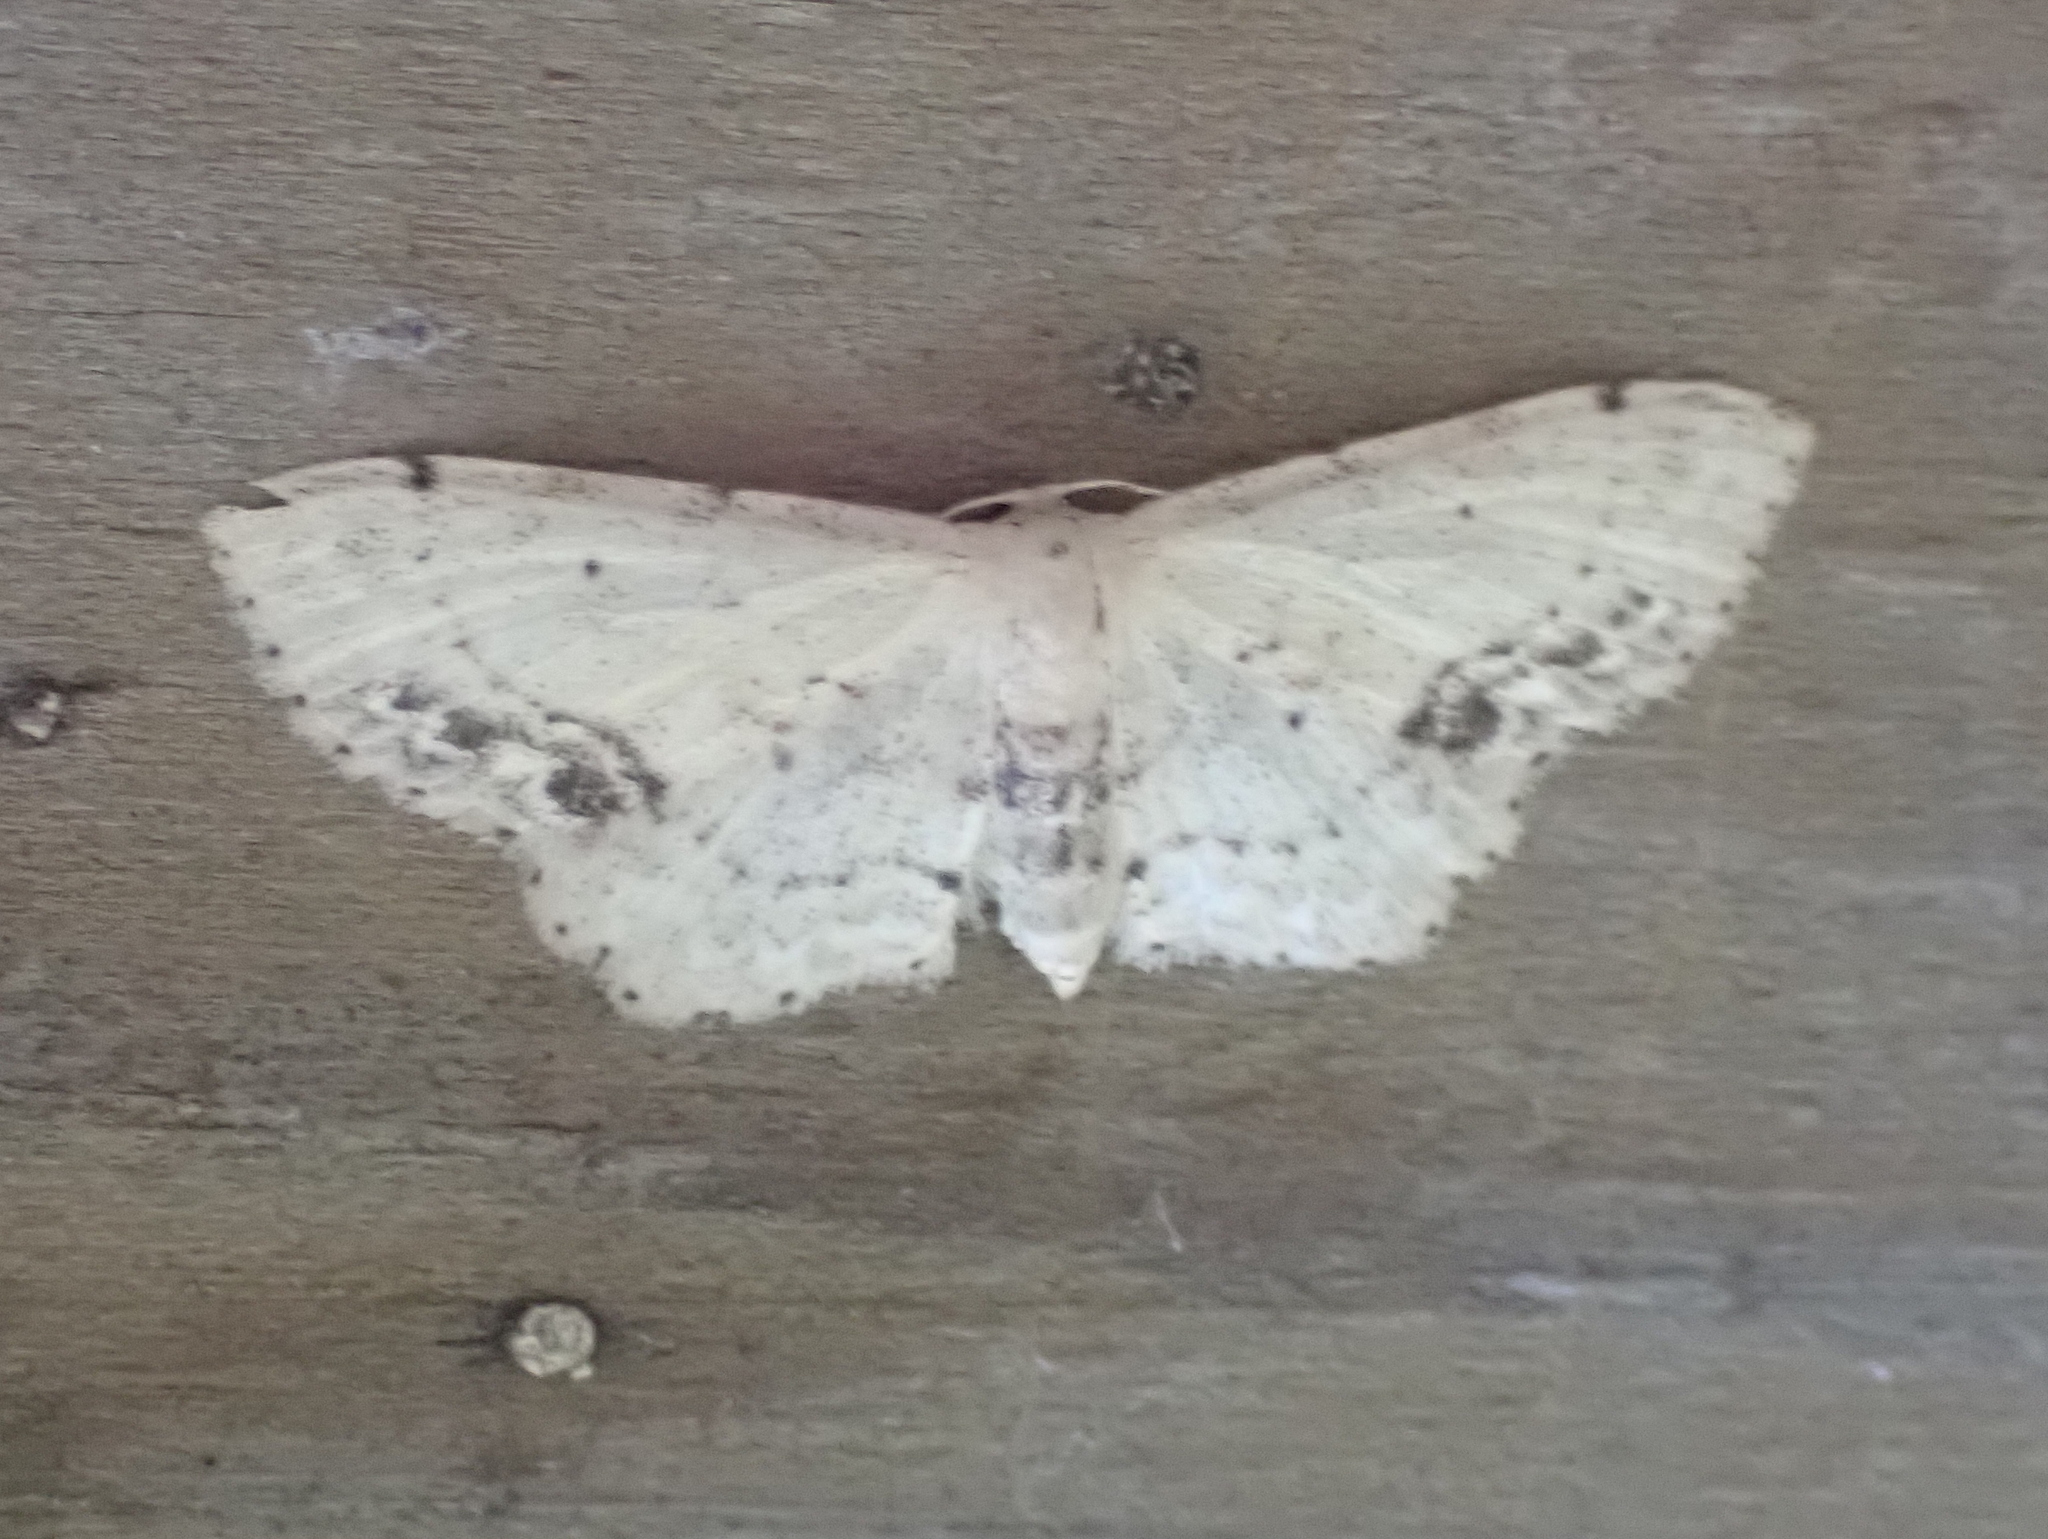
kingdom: Animalia
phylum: Arthropoda
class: Insecta
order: Lepidoptera
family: Geometridae
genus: Idaea
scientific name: Idaea dimidiata
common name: Single-dotted wave
